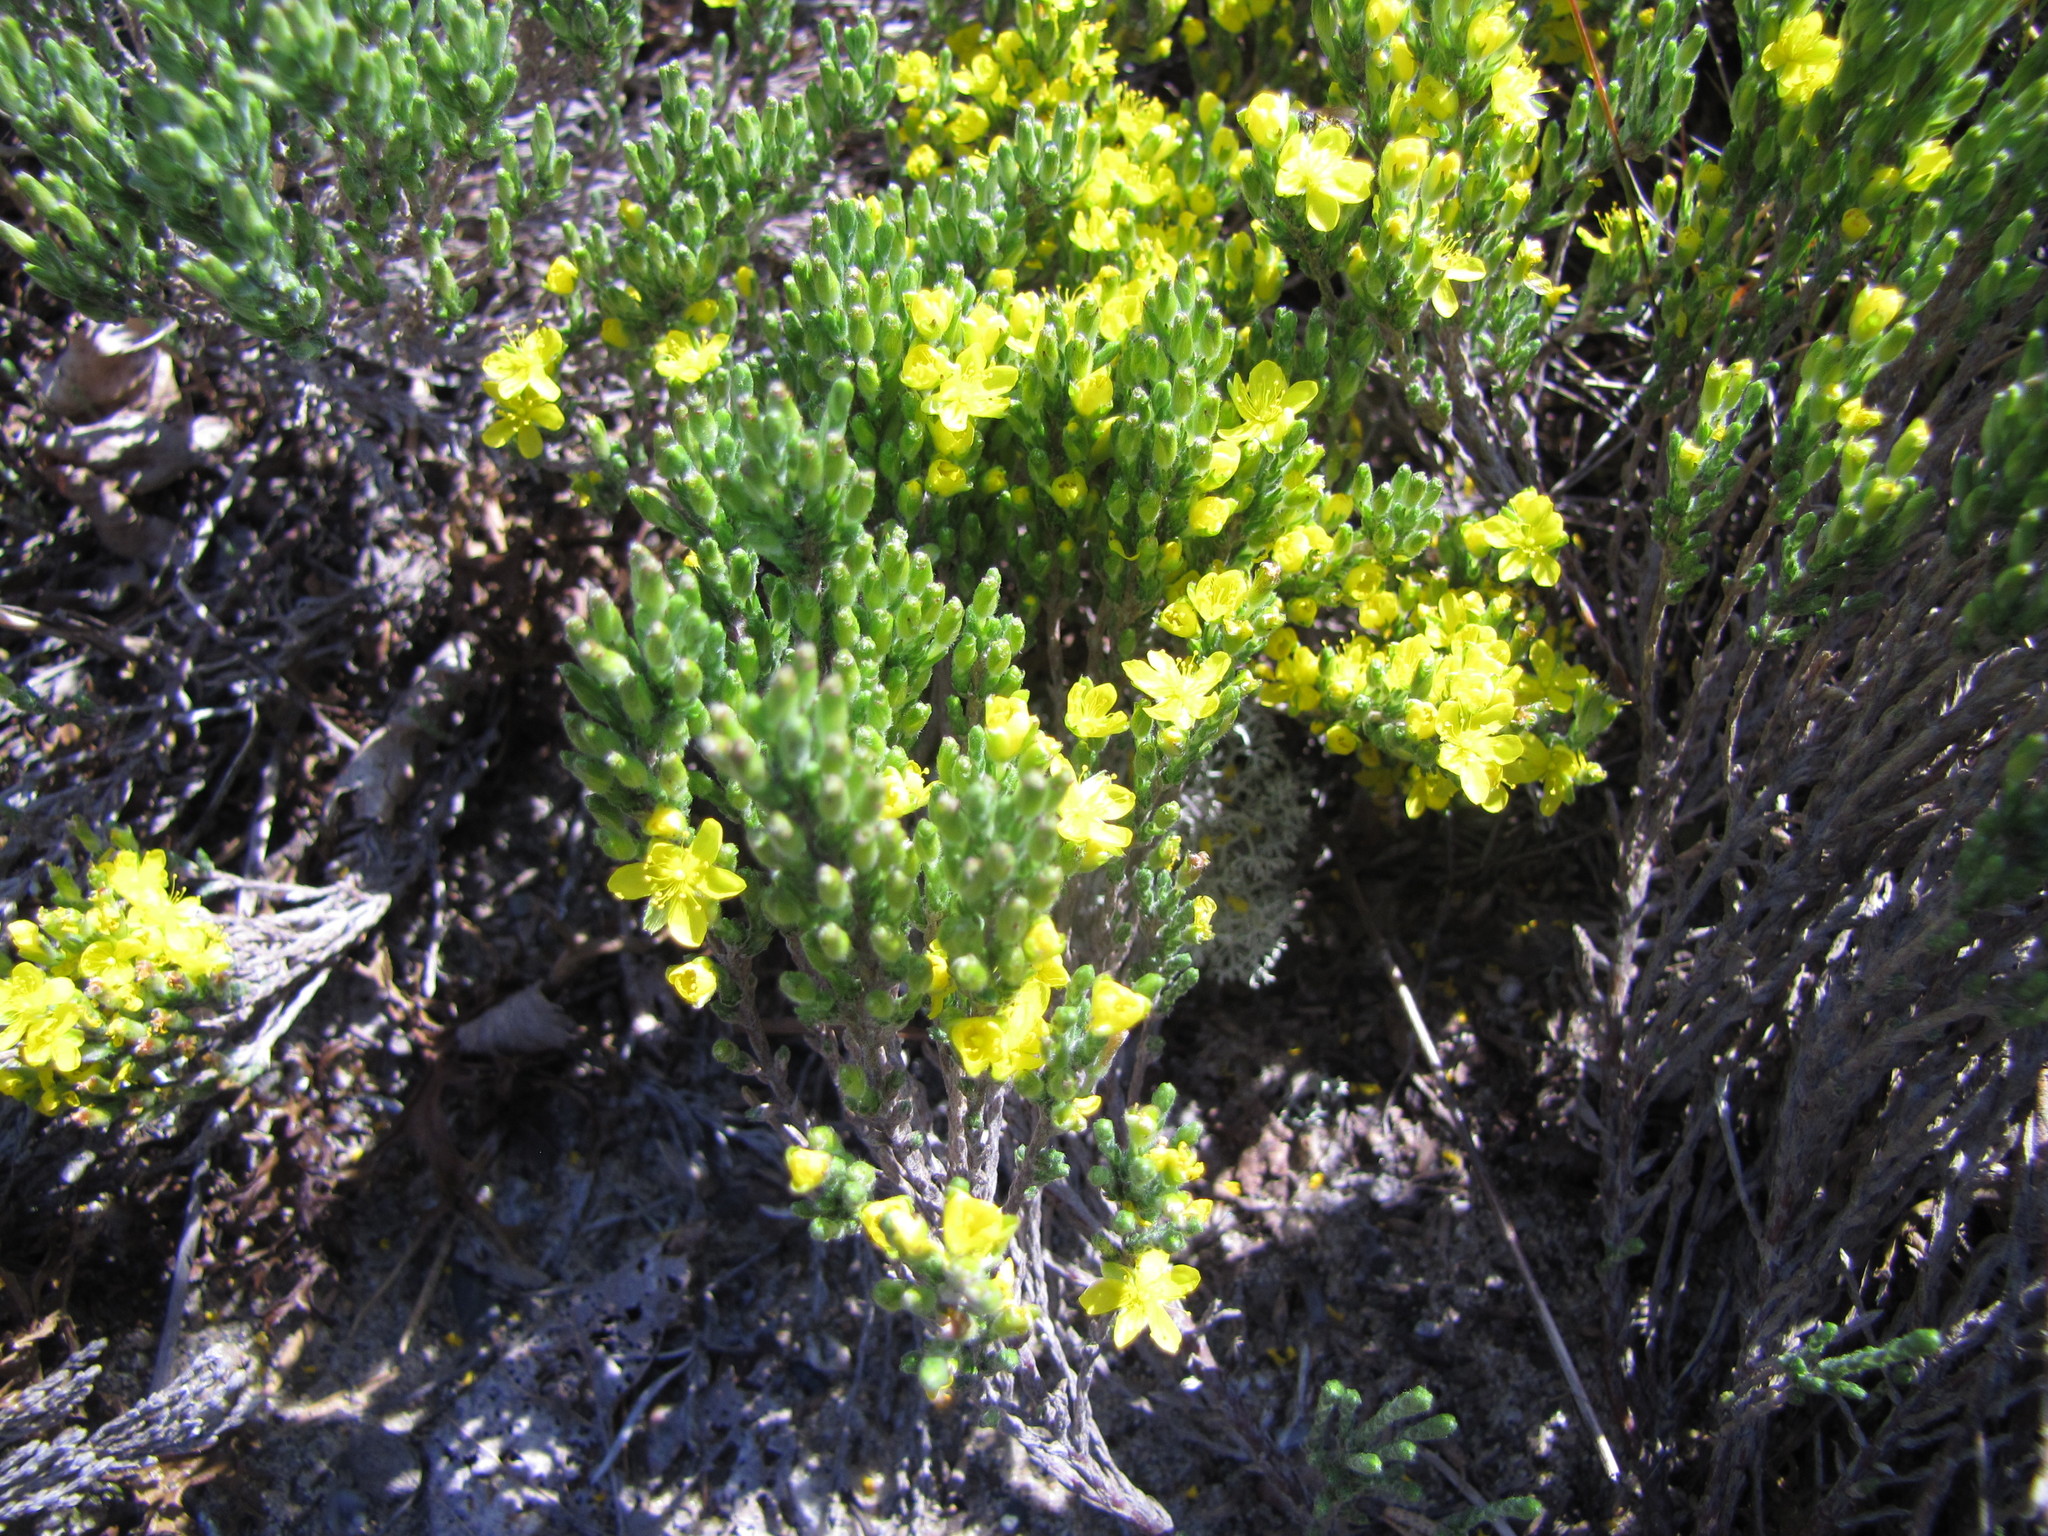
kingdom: Plantae
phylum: Tracheophyta
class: Magnoliopsida
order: Malvales
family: Cistaceae
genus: Hudsonia
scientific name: Hudsonia tomentosa
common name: Beach-heath
